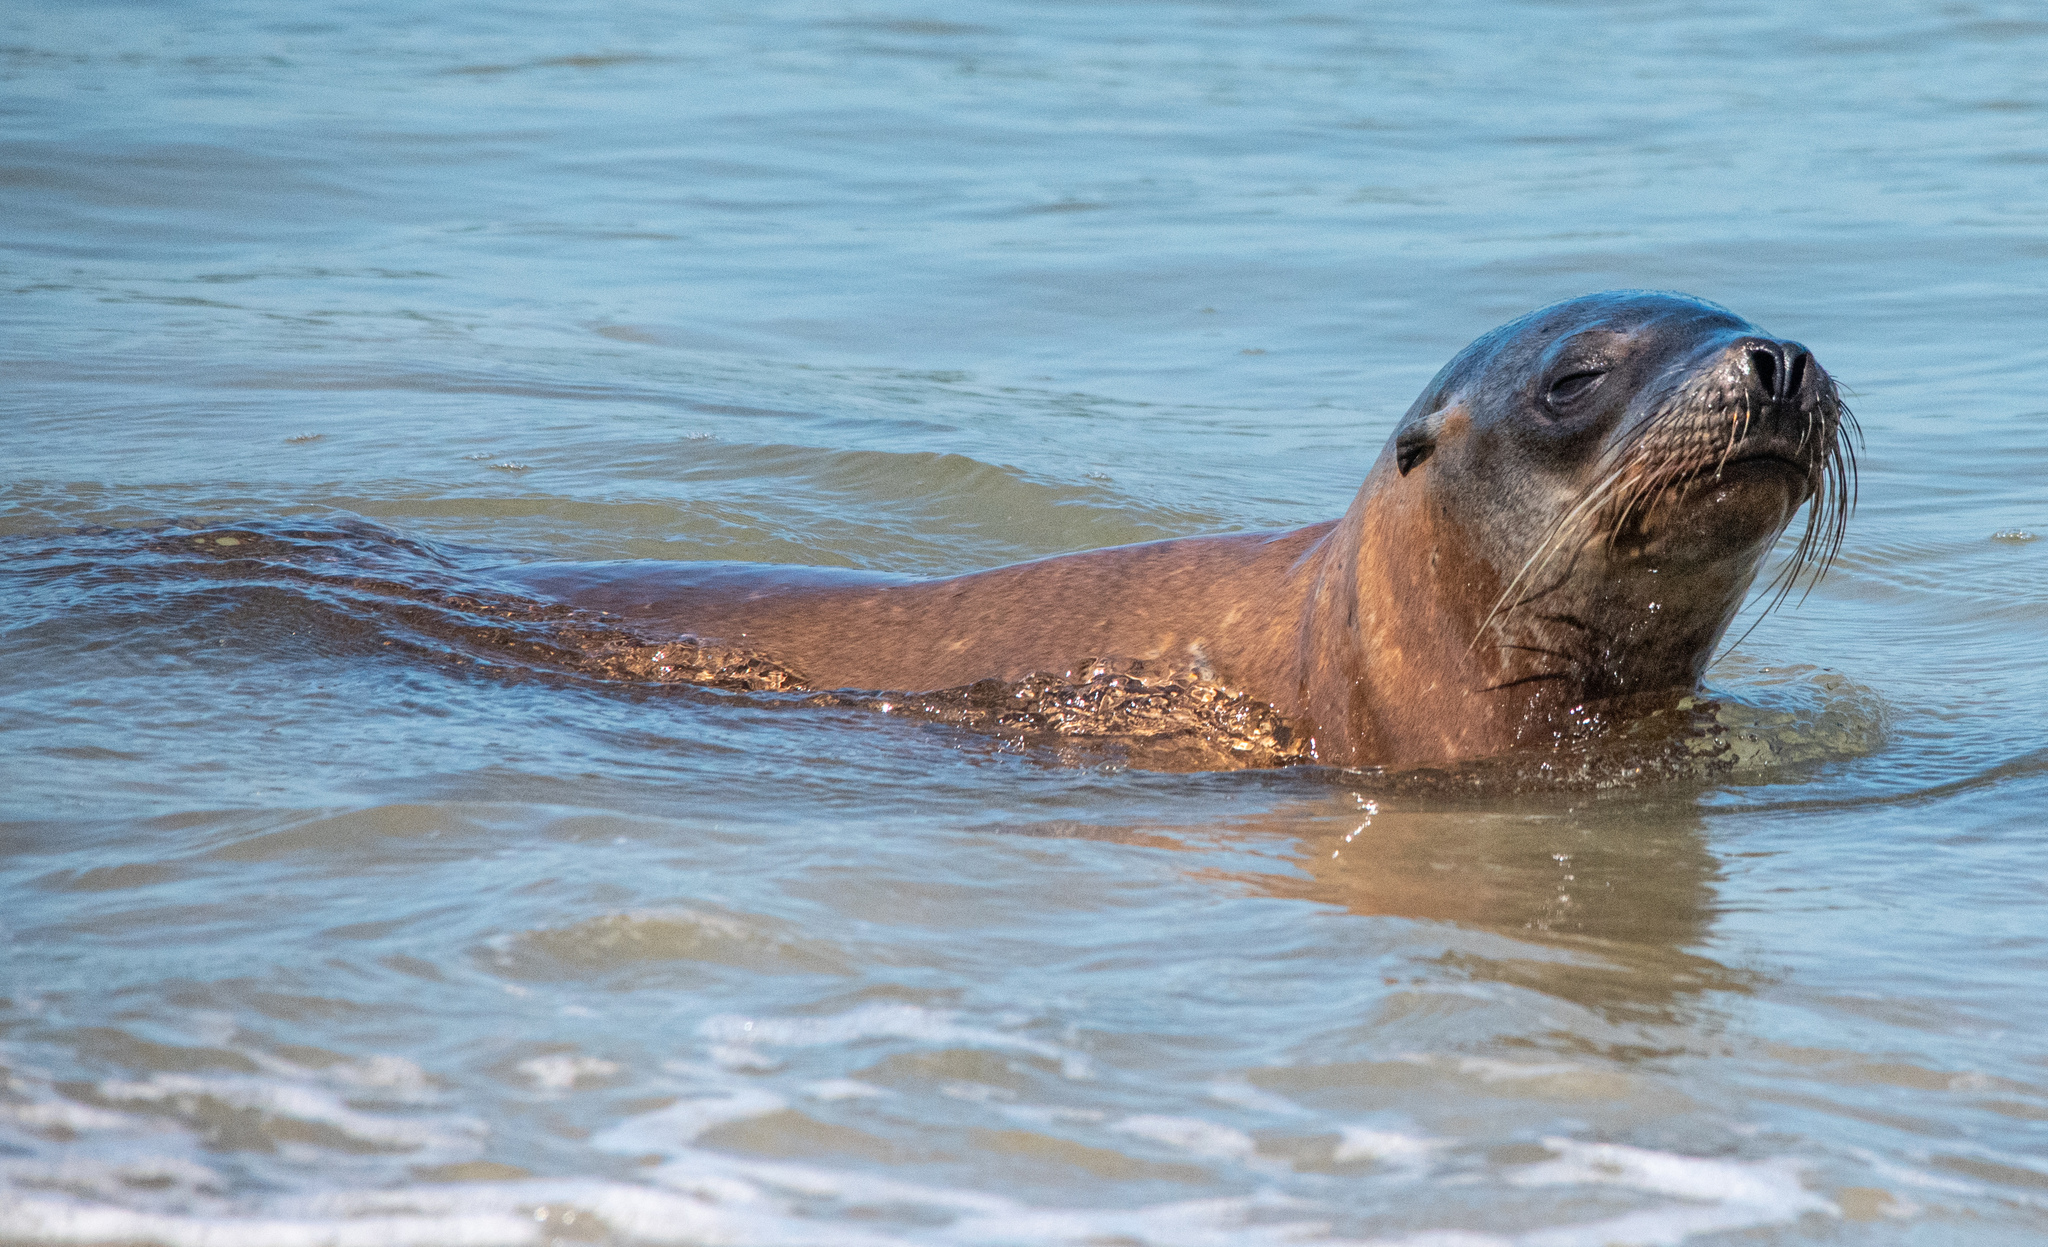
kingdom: Animalia
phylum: Chordata
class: Mammalia
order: Carnivora
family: Otariidae
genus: Zalophus
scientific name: Zalophus californianus
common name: California sea lion
